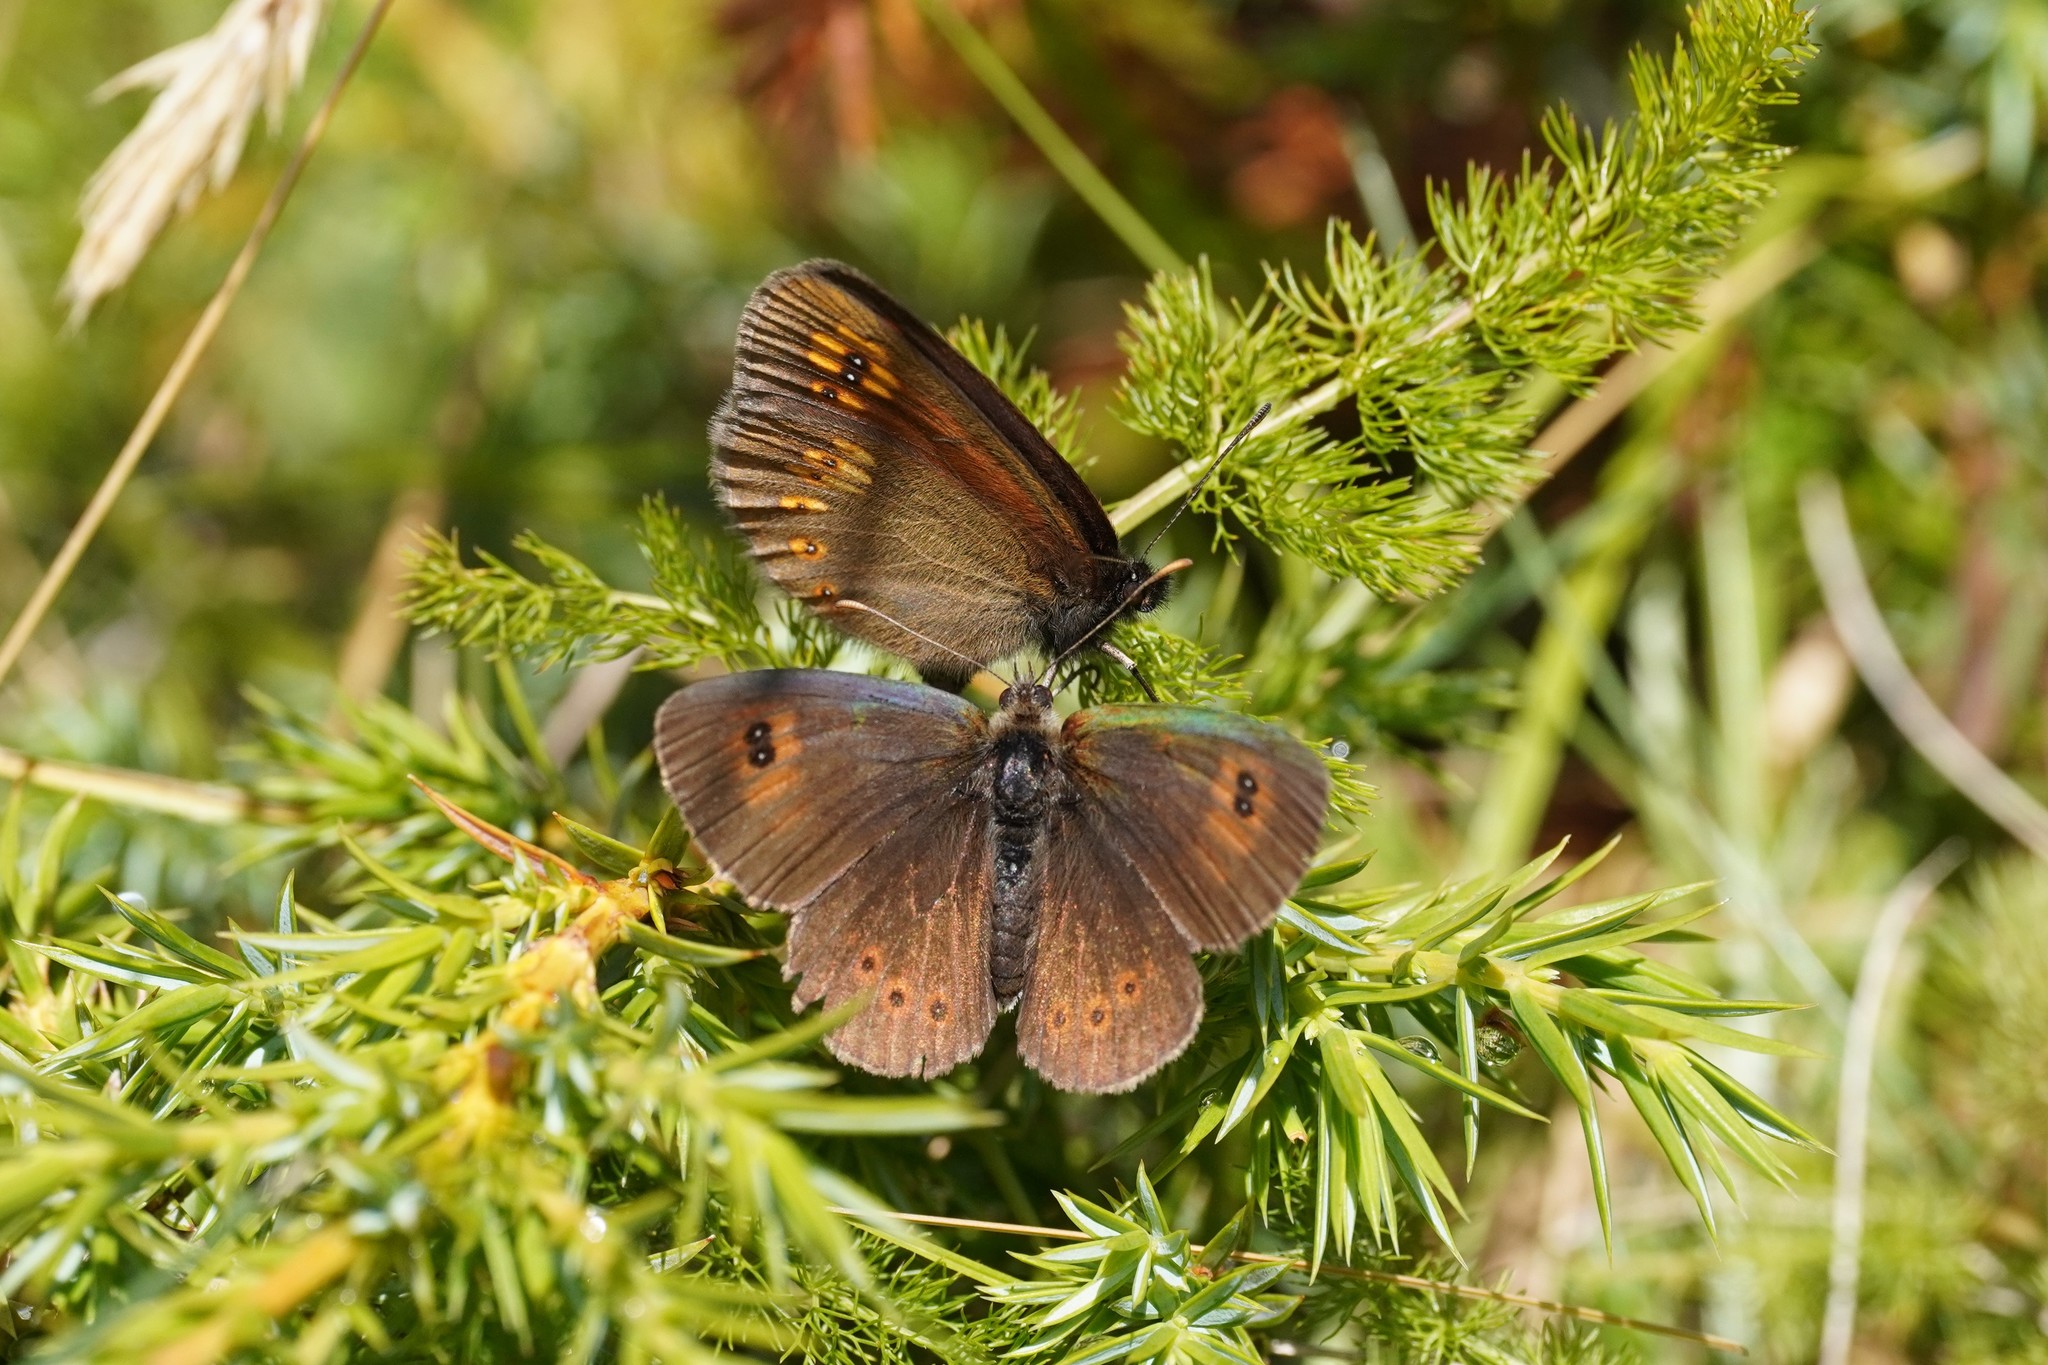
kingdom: Animalia
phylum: Arthropoda
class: Insecta
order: Lepidoptera
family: Nymphalidae
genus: Erebia
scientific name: Erebia alberganus
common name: Almond-eyed ringlet
